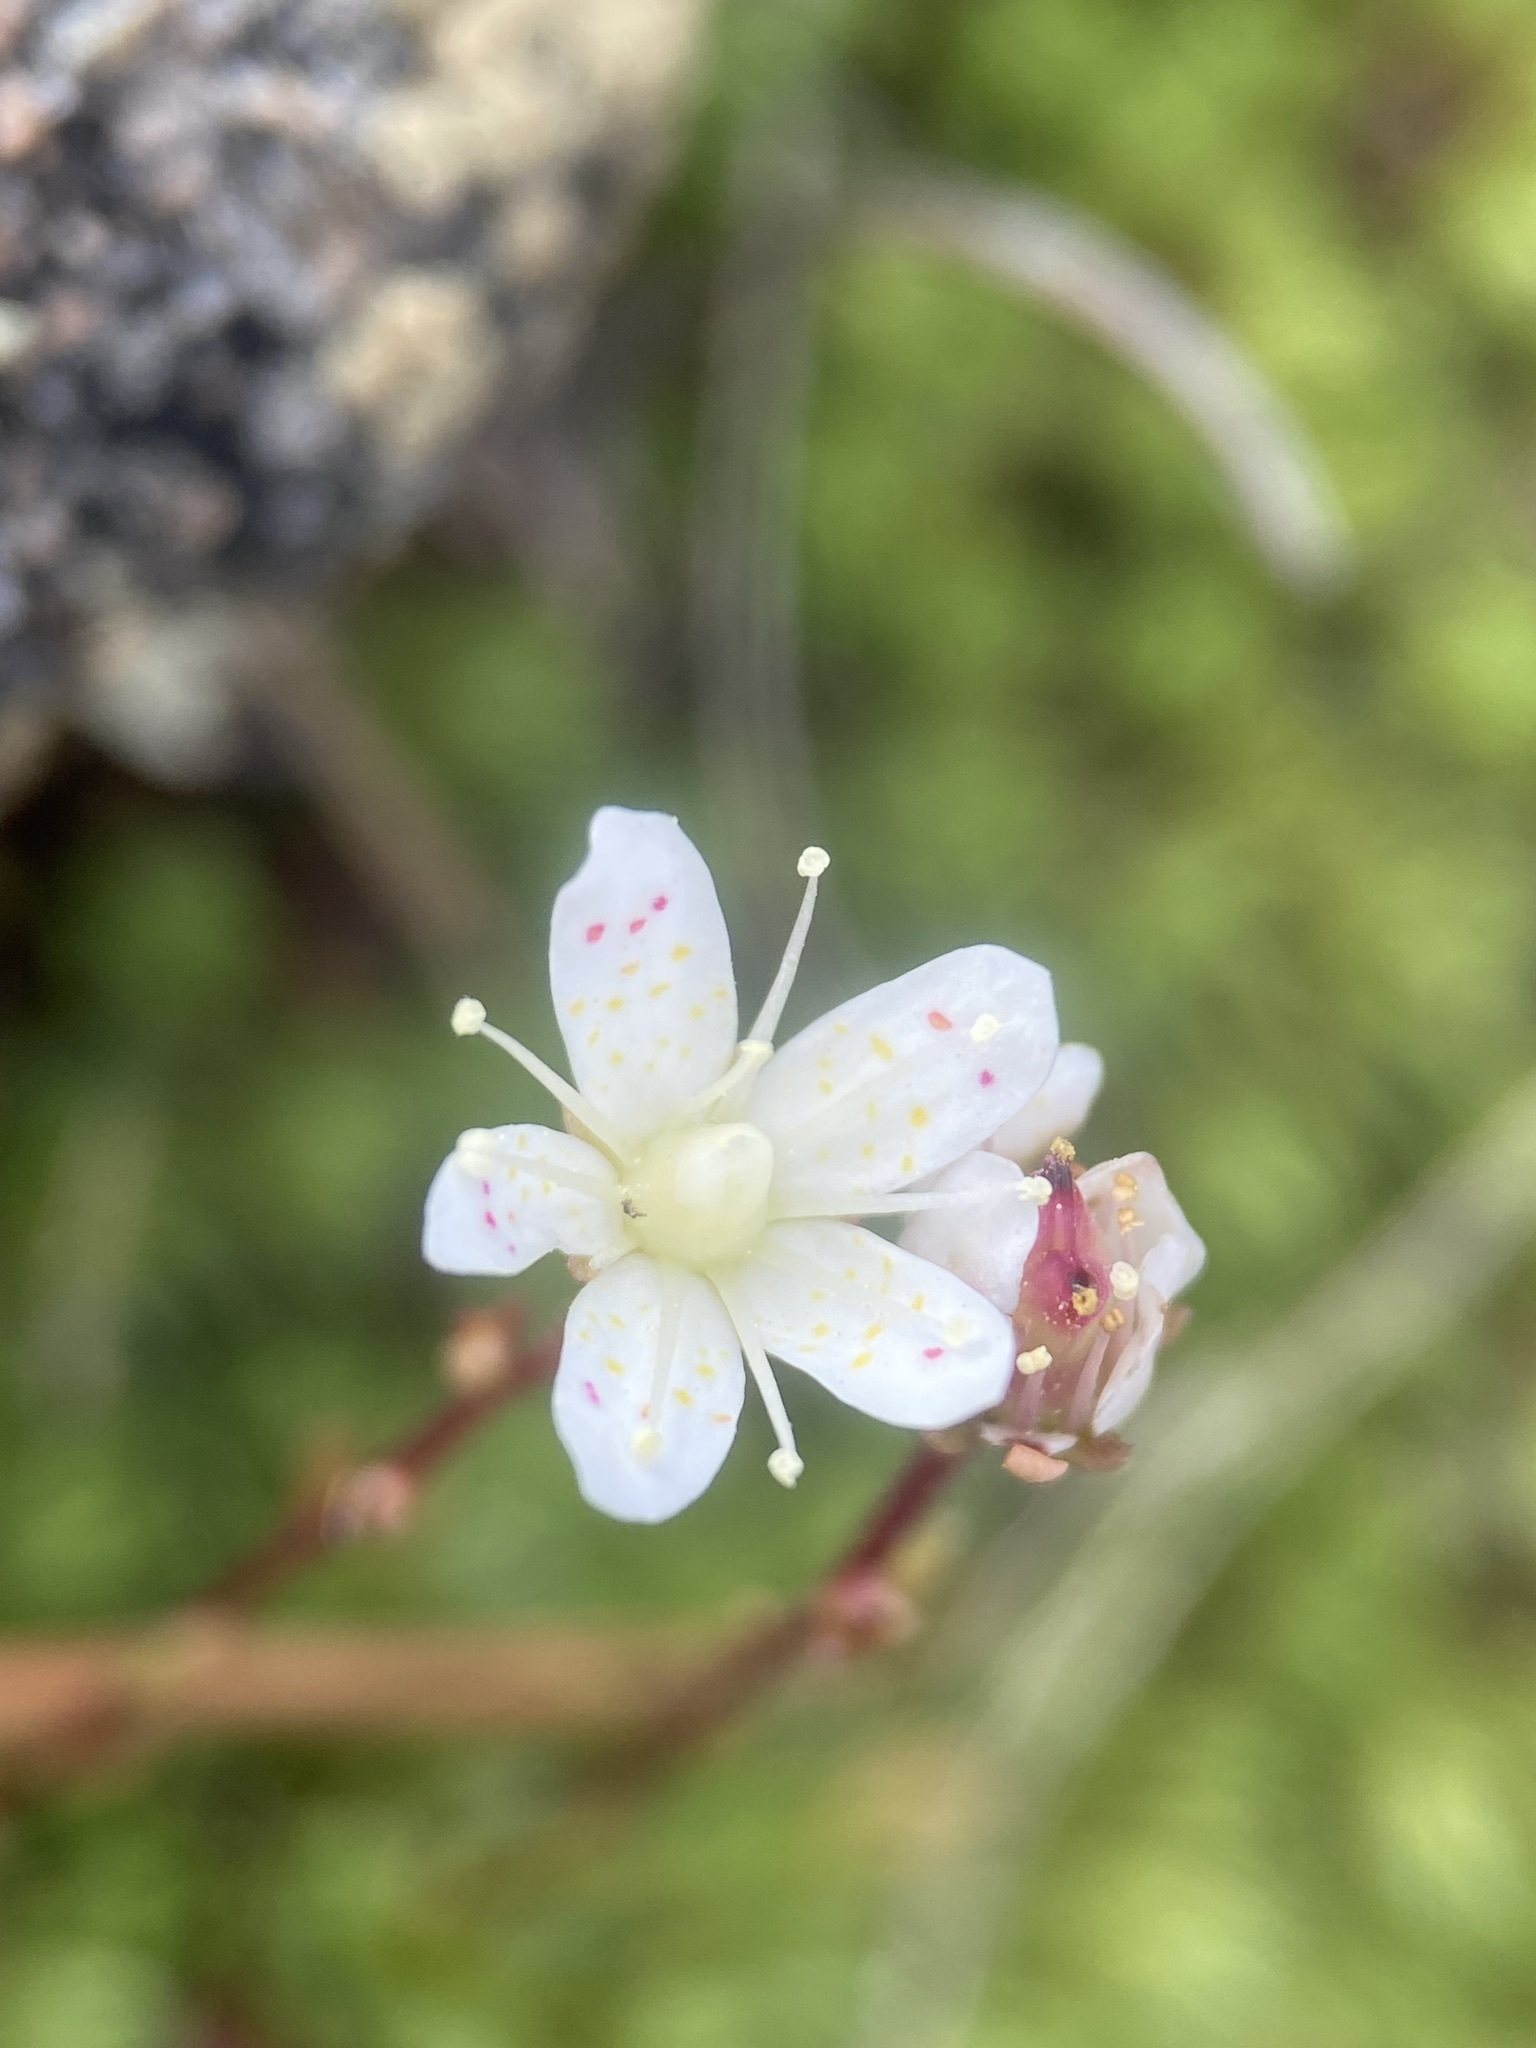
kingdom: Plantae
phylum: Tracheophyta
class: Magnoliopsida
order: Saxifragales
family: Saxifragaceae
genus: Saxifraga
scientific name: Saxifraga bronchialis
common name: Matted saxifrage
